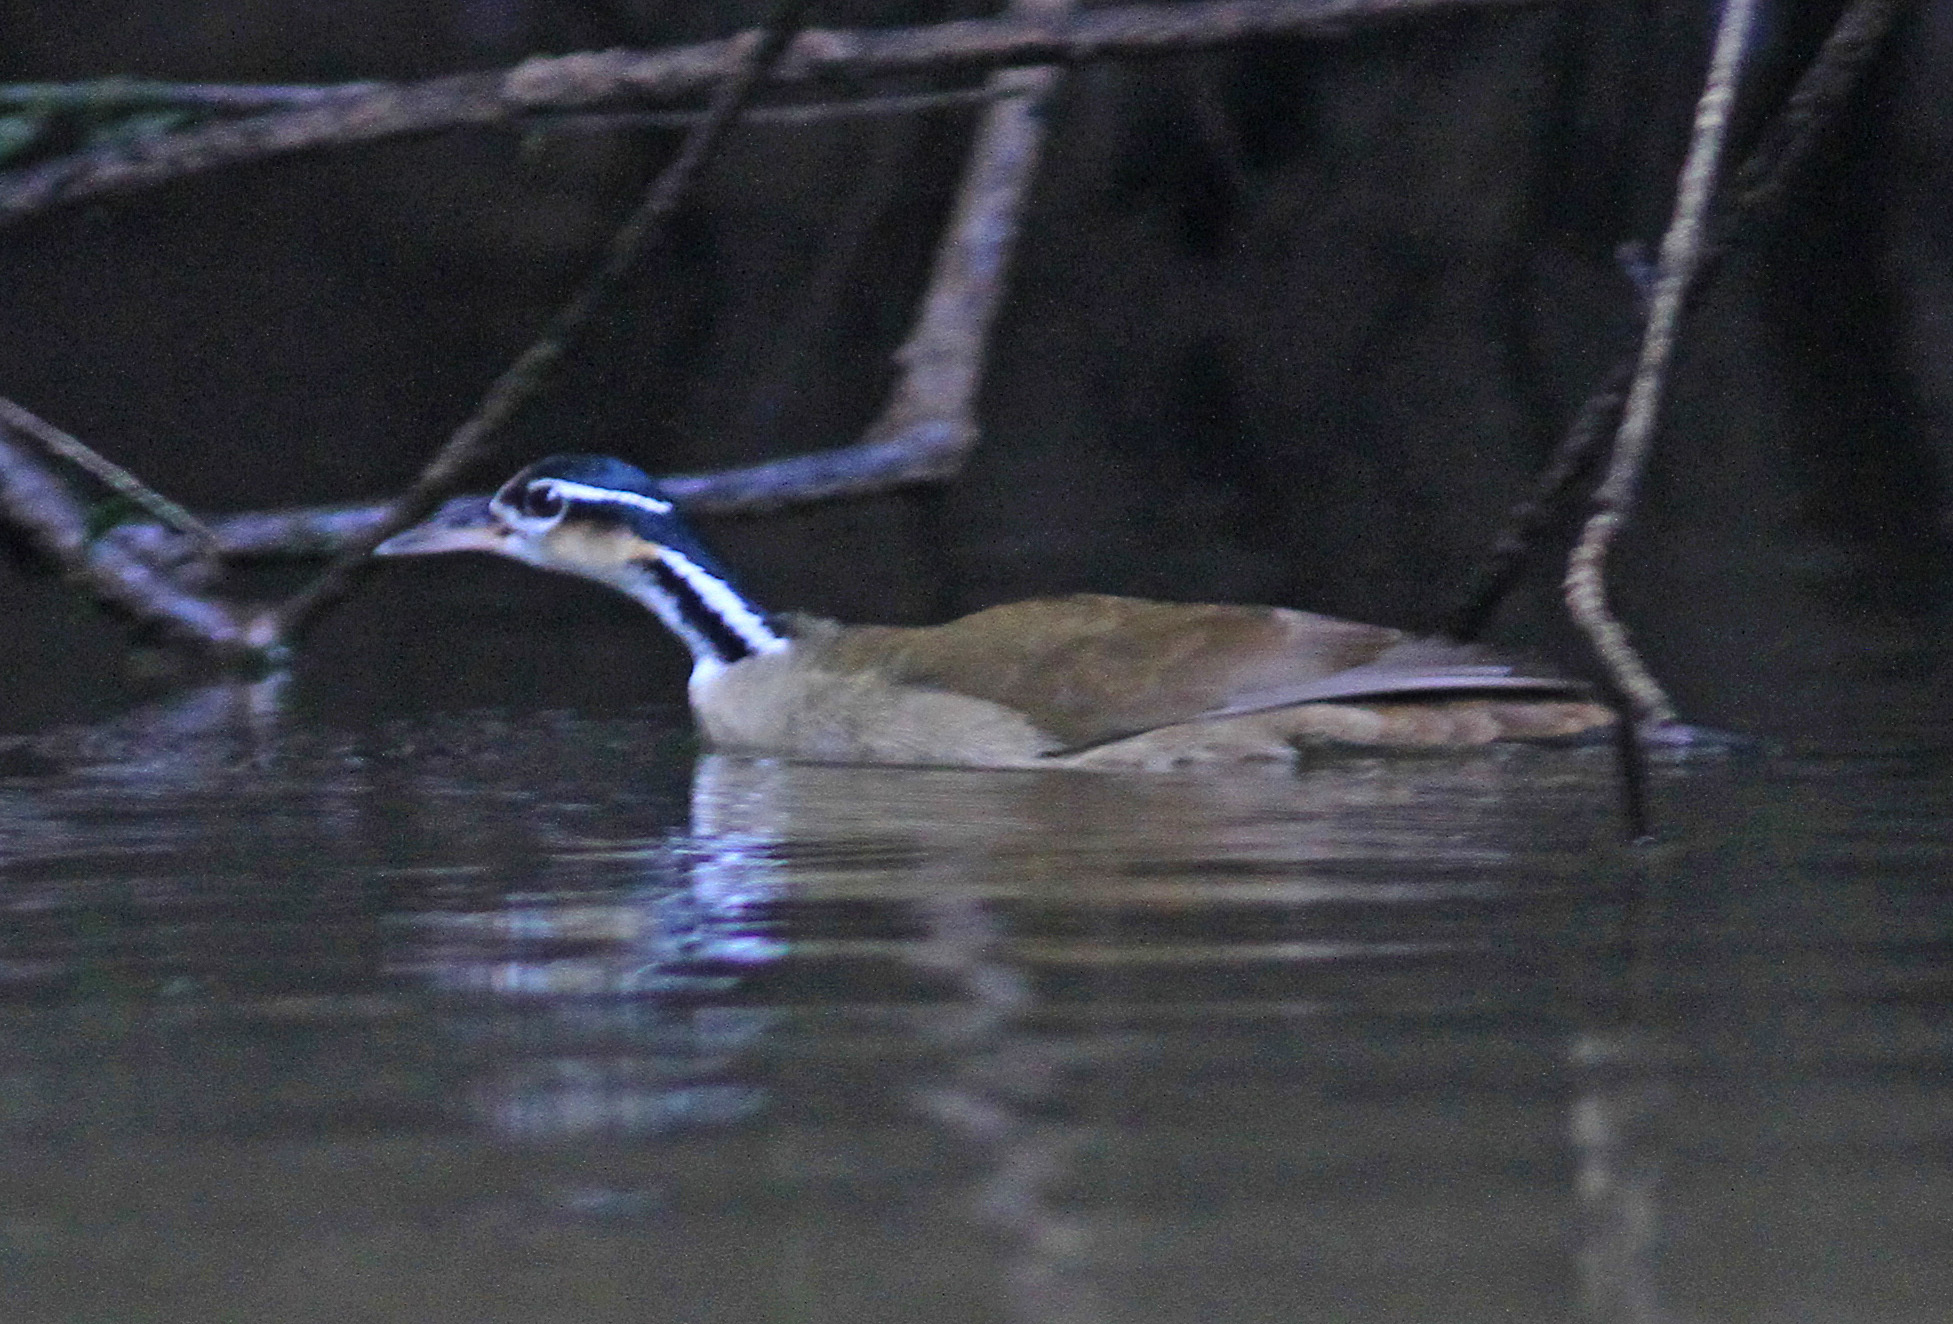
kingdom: Animalia
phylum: Chordata
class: Aves
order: Gruiformes
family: Heliornithidae
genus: Heliornis
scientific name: Heliornis fulica
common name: Sungrebe
